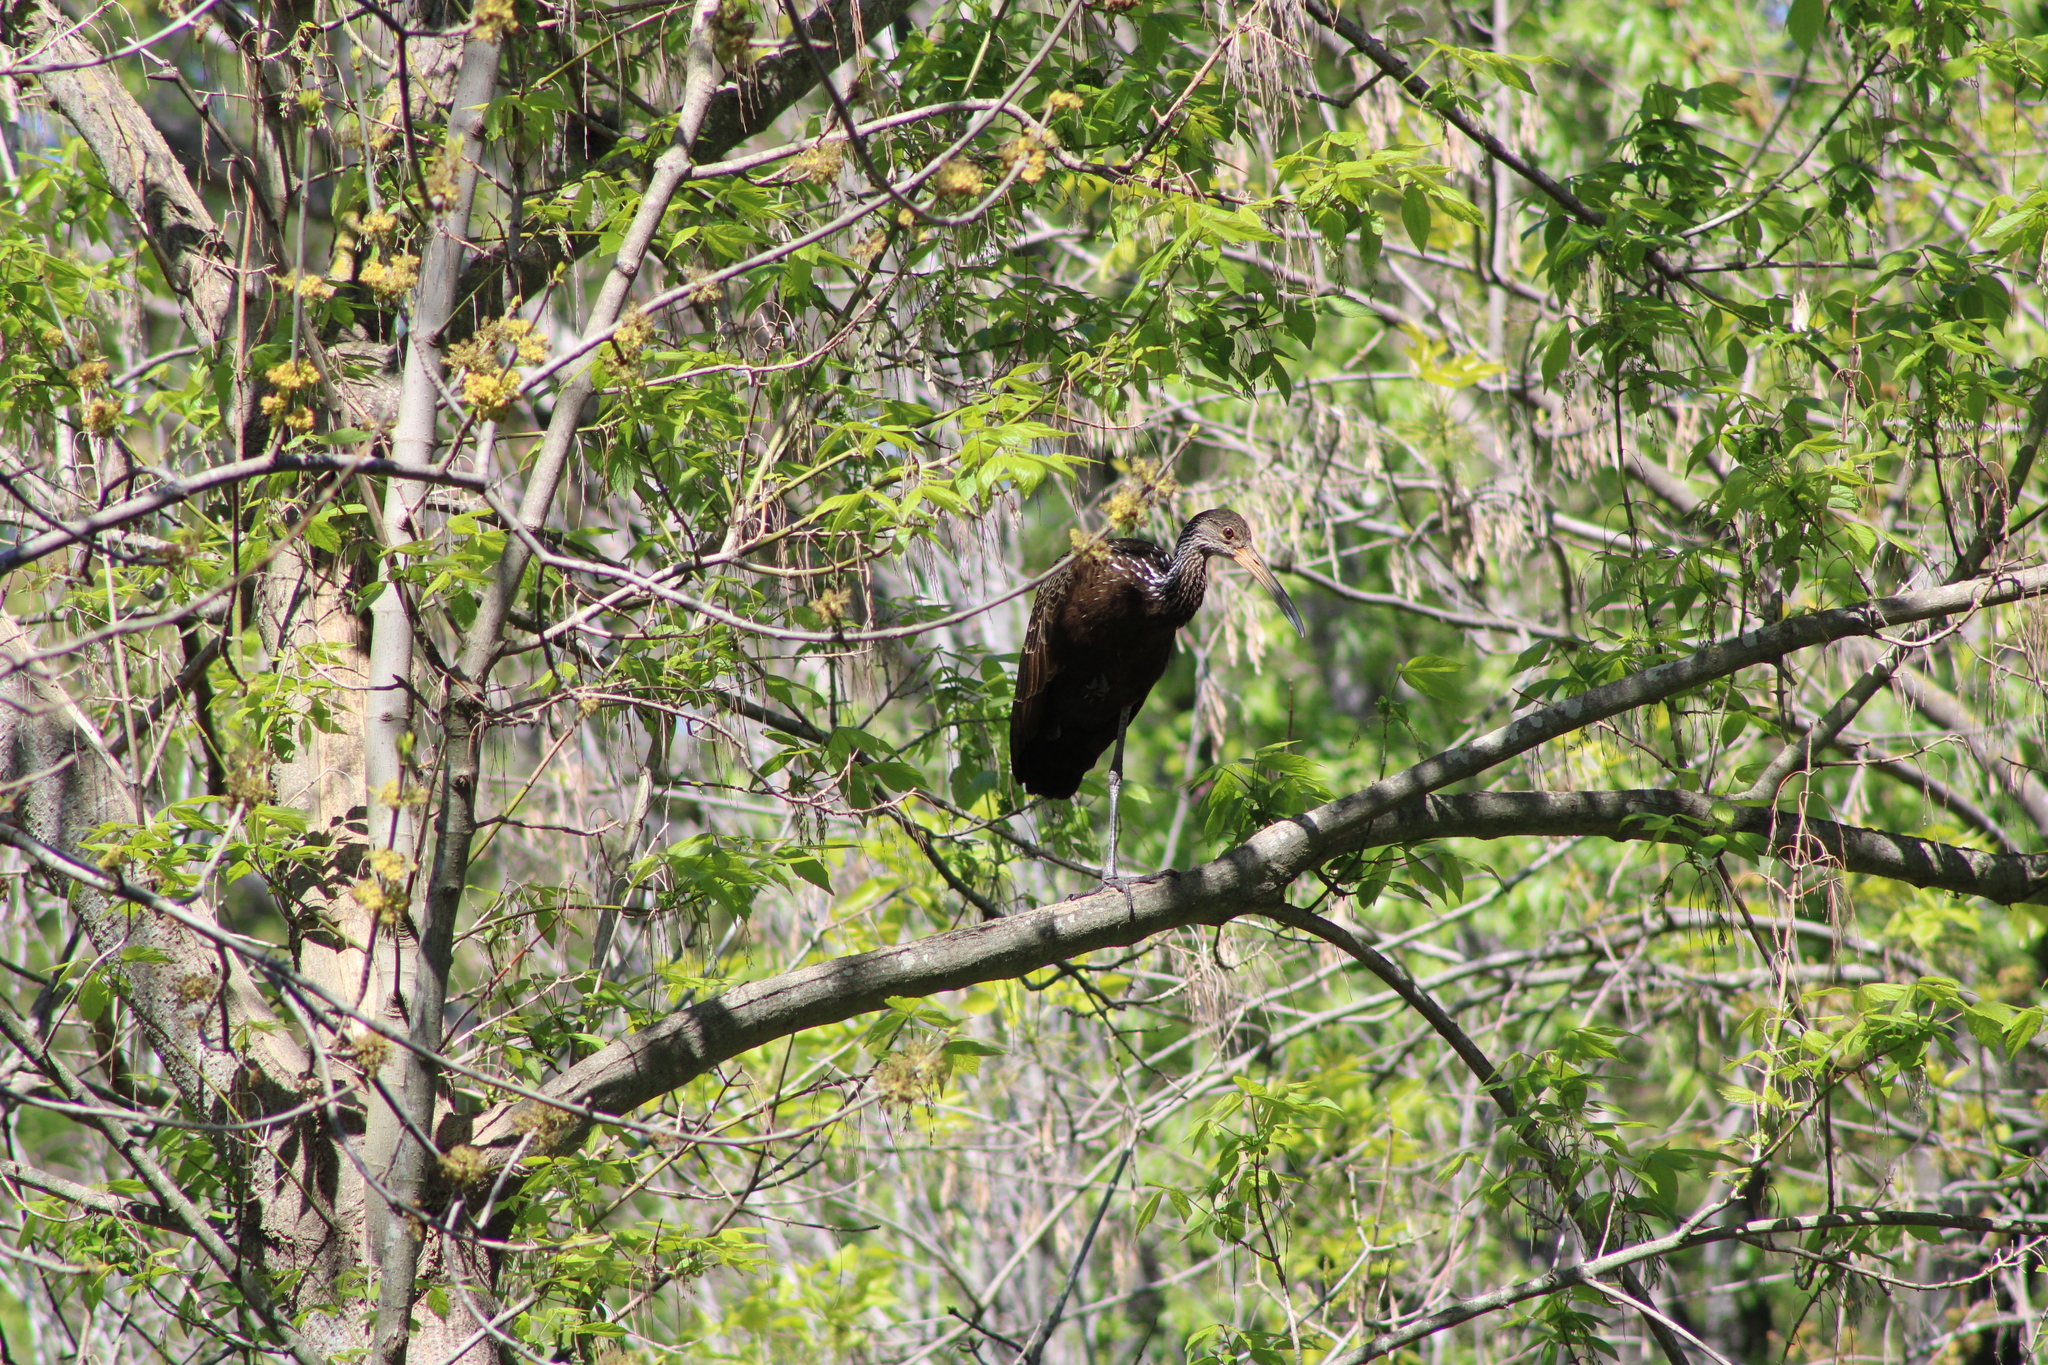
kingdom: Animalia
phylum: Chordata
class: Aves
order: Gruiformes
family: Aramidae
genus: Aramus
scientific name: Aramus guarauna
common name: Limpkin
